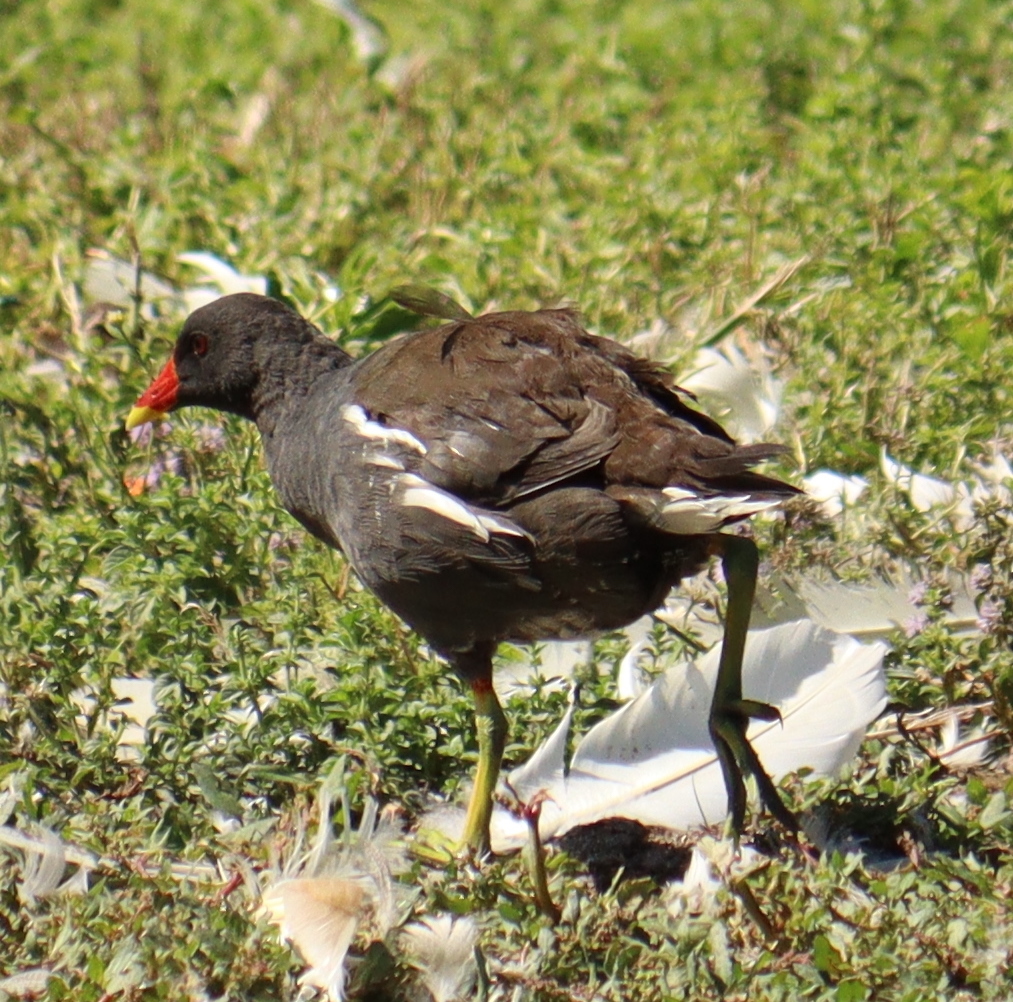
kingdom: Animalia
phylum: Chordata
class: Aves
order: Gruiformes
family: Rallidae
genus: Gallinula
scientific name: Gallinula chloropus
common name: Common moorhen
